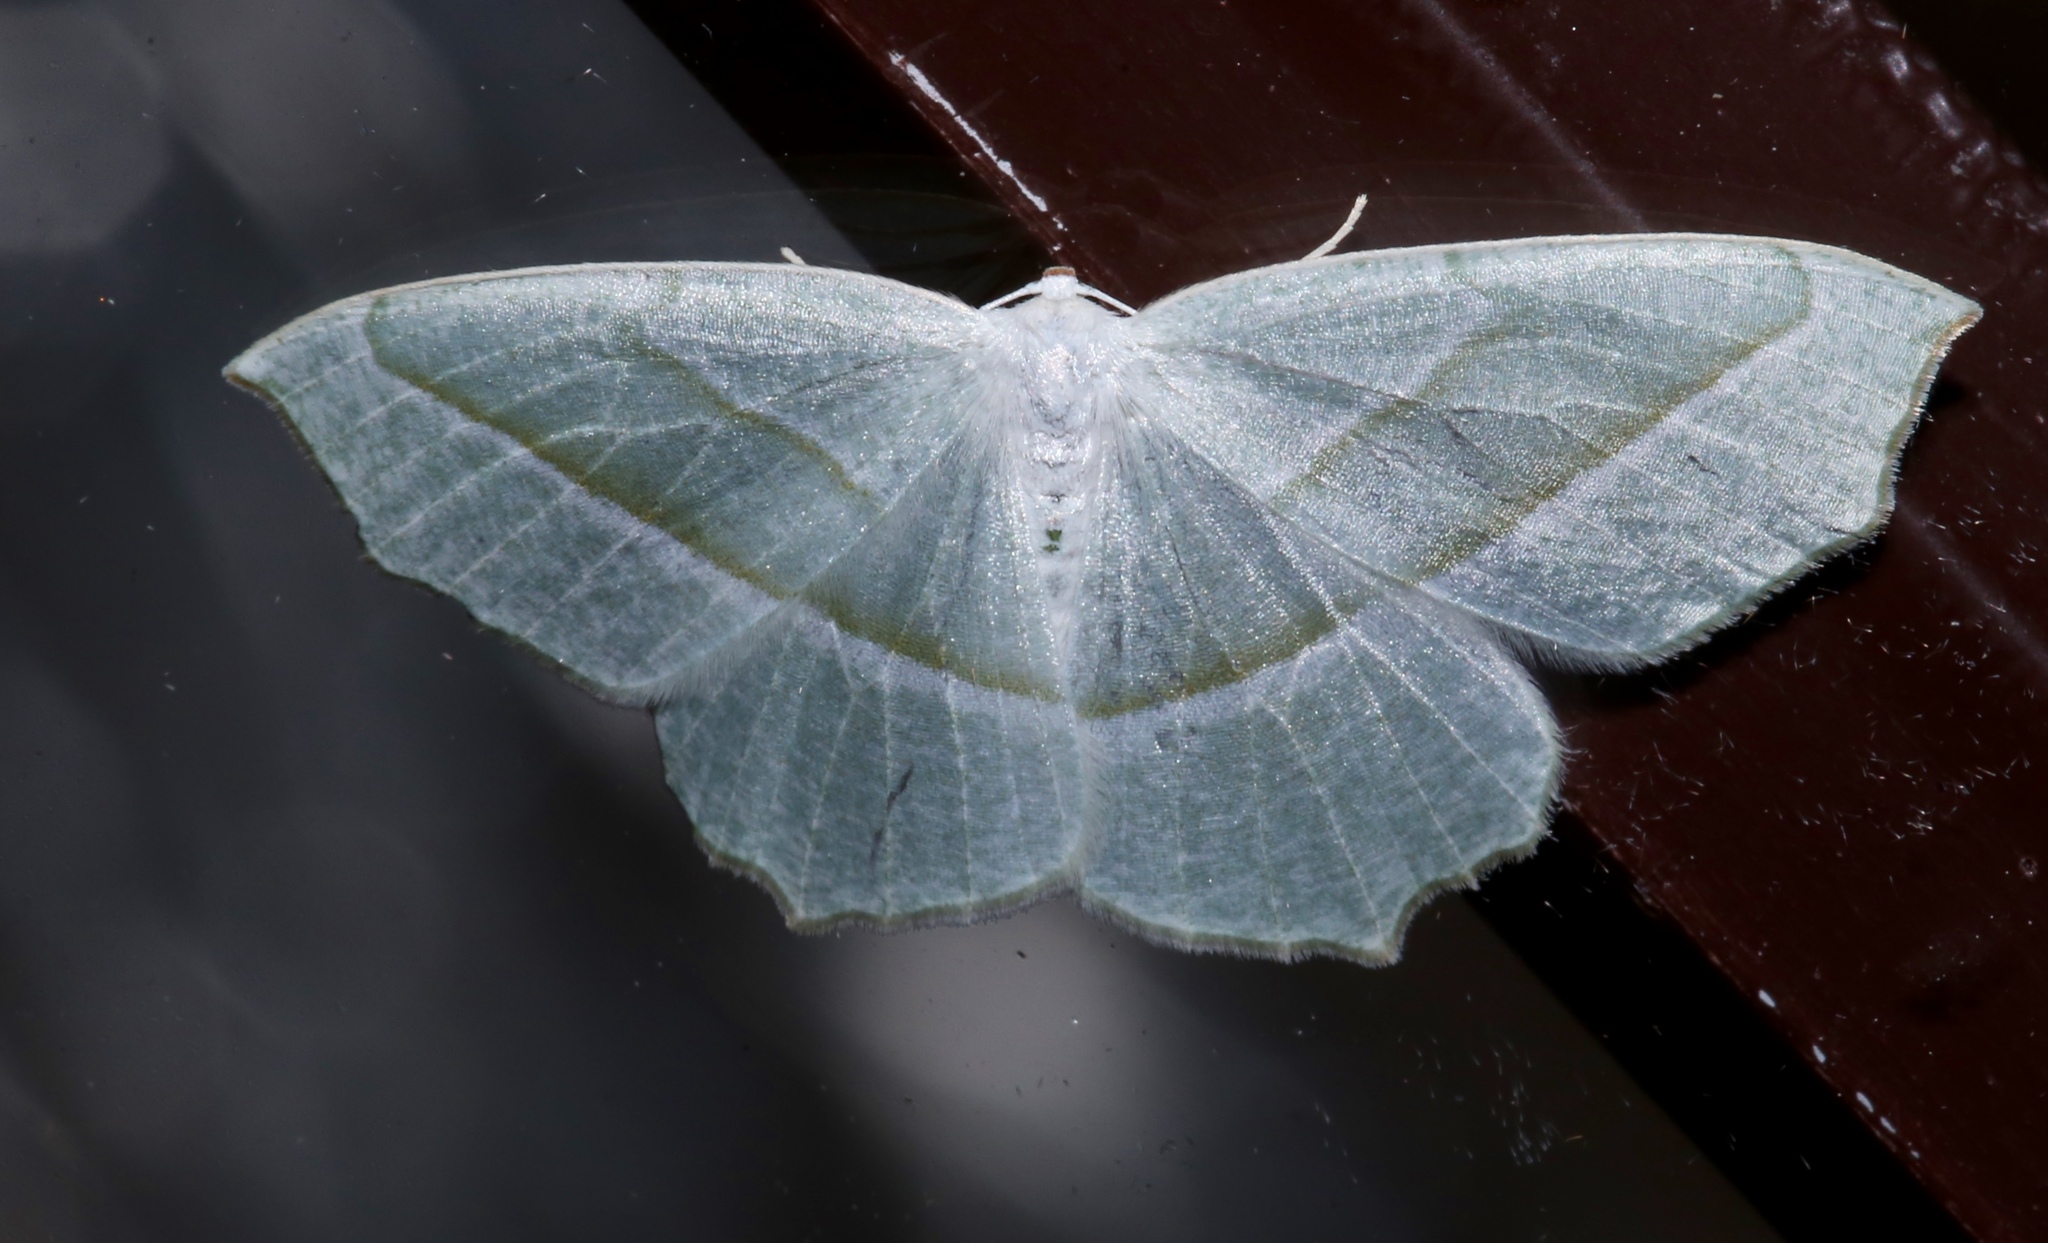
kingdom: Animalia
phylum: Arthropoda
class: Insecta
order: Lepidoptera
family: Geometridae
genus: Campaea
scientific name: Campaea perlata
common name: Fringed looper
